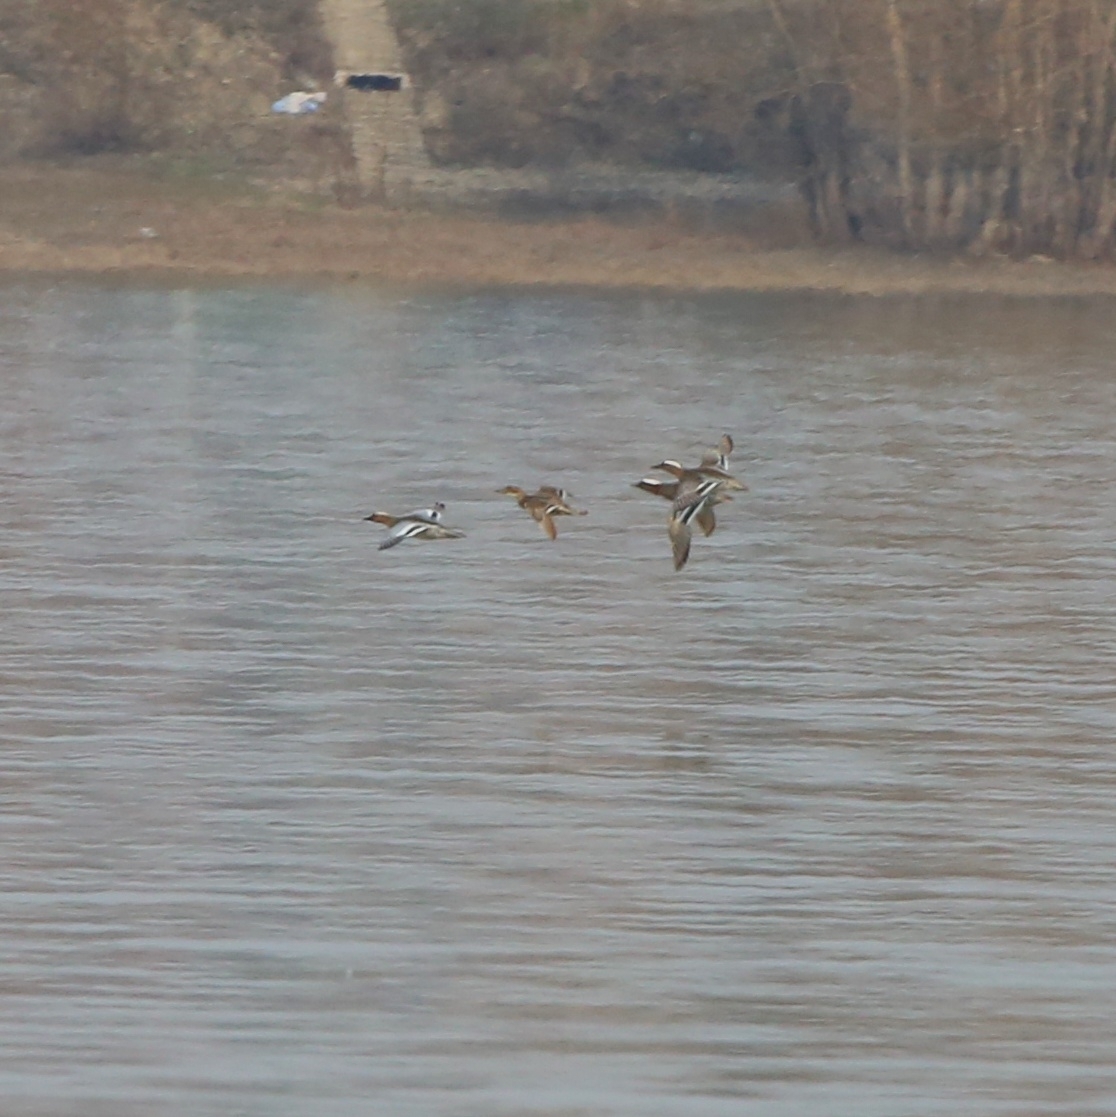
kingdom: Animalia
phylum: Chordata
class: Aves
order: Anseriformes
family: Anatidae
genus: Spatula
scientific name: Spatula querquedula
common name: Garganey
